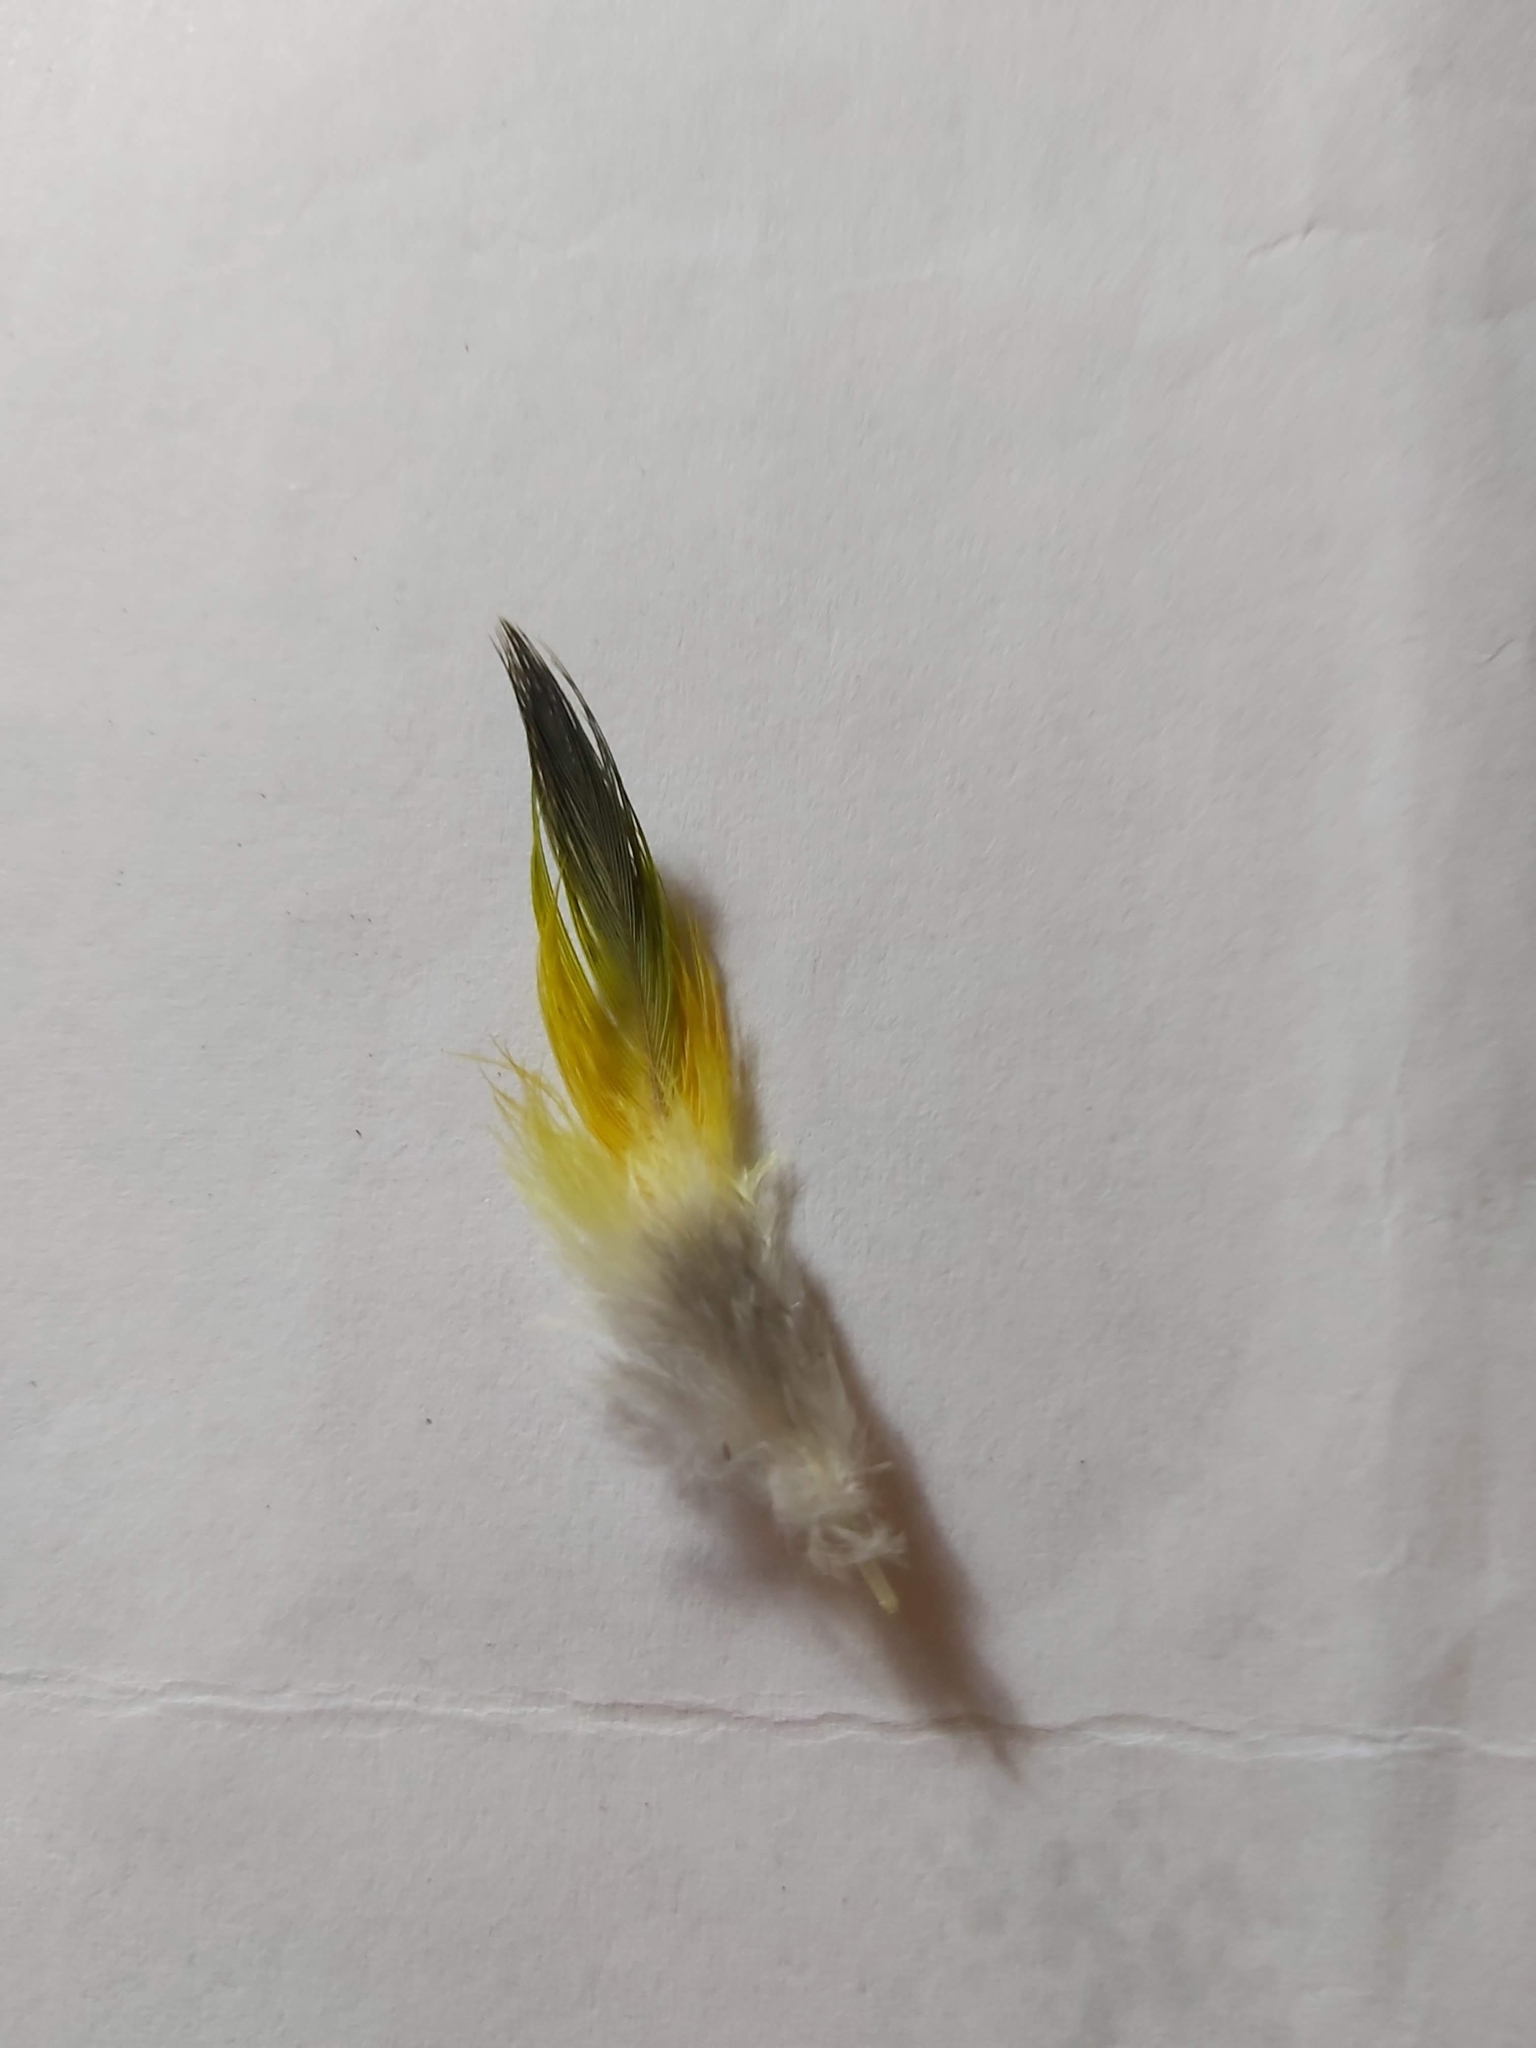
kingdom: Animalia
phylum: Chordata
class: Aves
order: Psittaciformes
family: Psittacidae
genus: Trichoglossus
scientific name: Trichoglossus haematodus
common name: Coconut lorikeet
